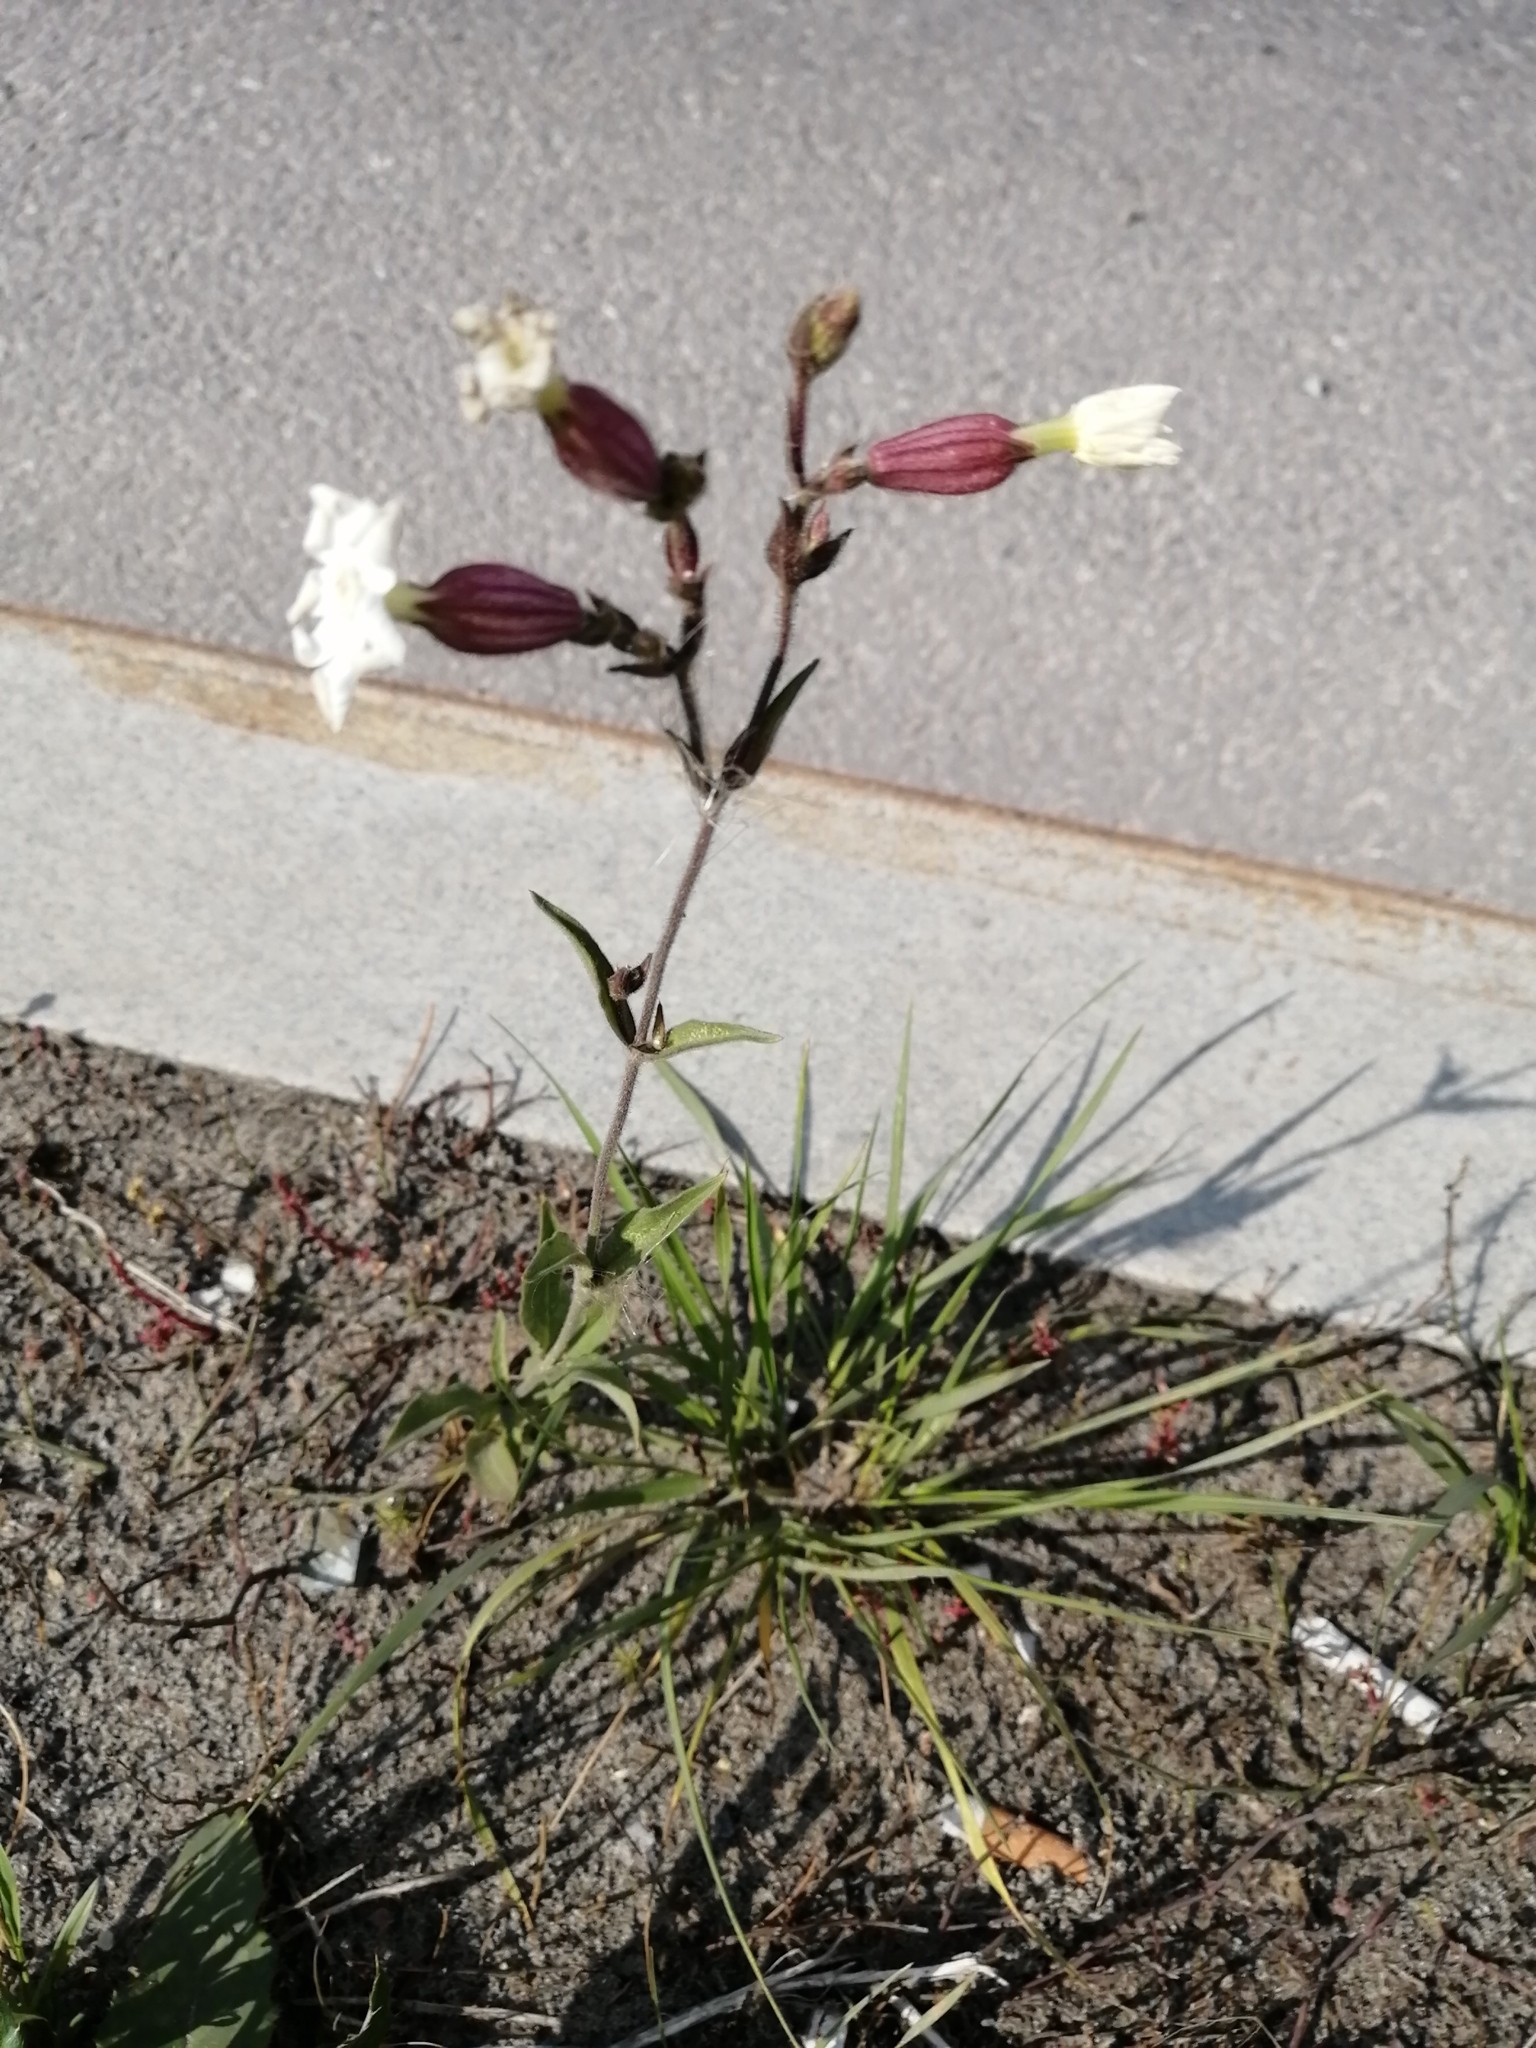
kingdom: Plantae
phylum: Tracheophyta
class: Magnoliopsida
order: Caryophyllales
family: Caryophyllaceae
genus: Silene
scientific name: Silene latifolia
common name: White campion
